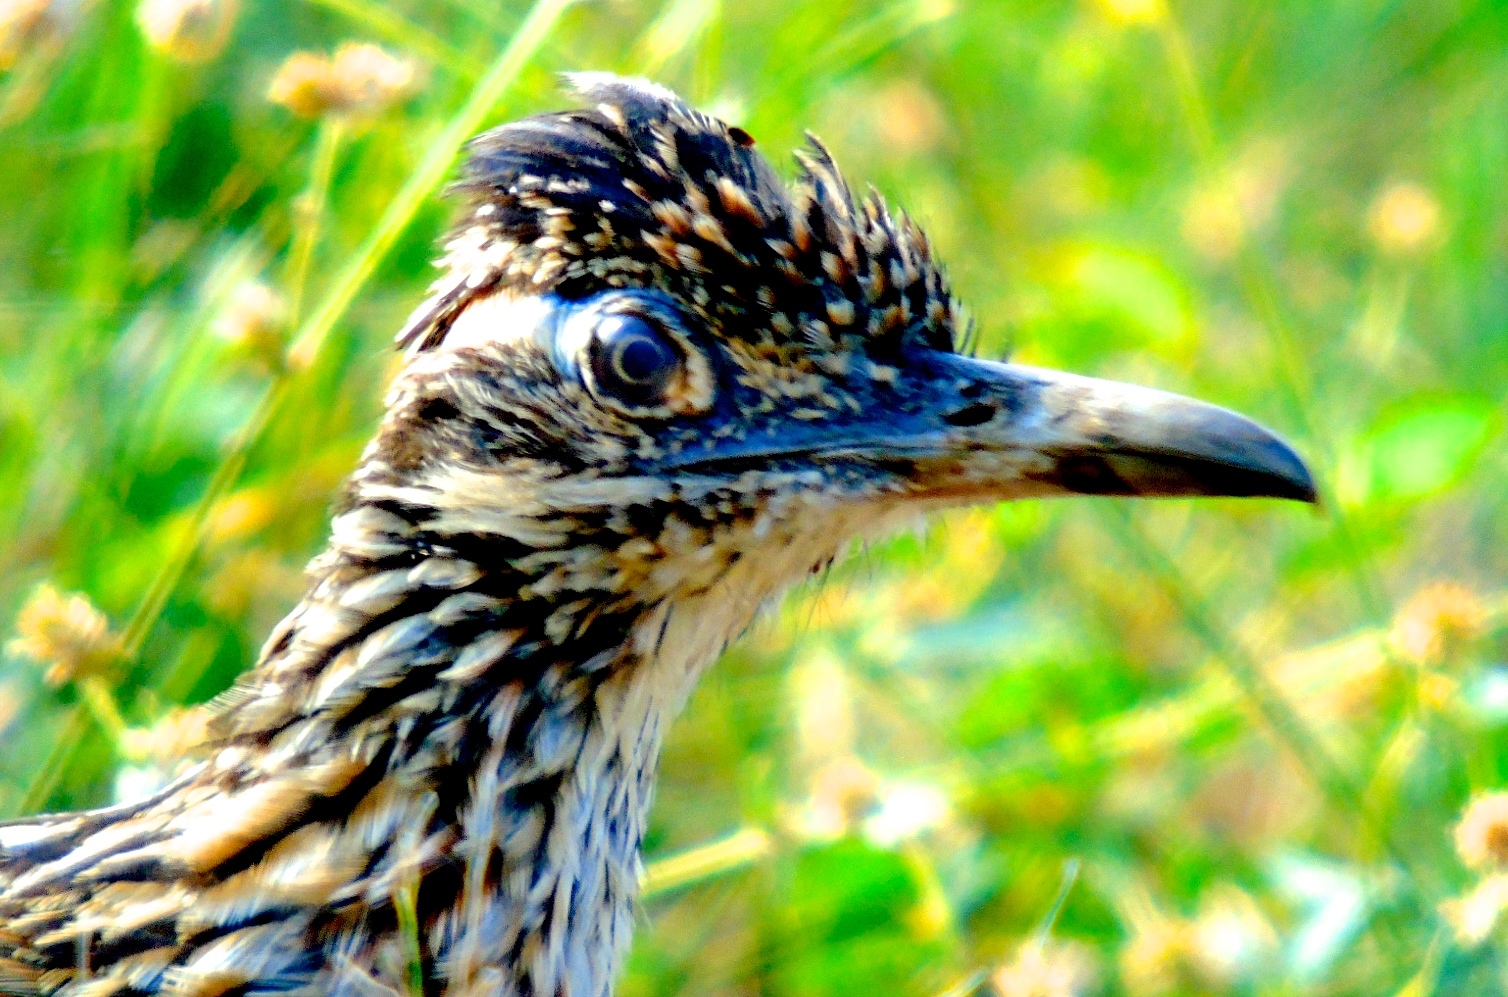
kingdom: Animalia
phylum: Chordata
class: Aves
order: Cuculiformes
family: Cuculidae
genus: Geococcyx
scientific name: Geococcyx californianus
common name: Greater roadrunner
